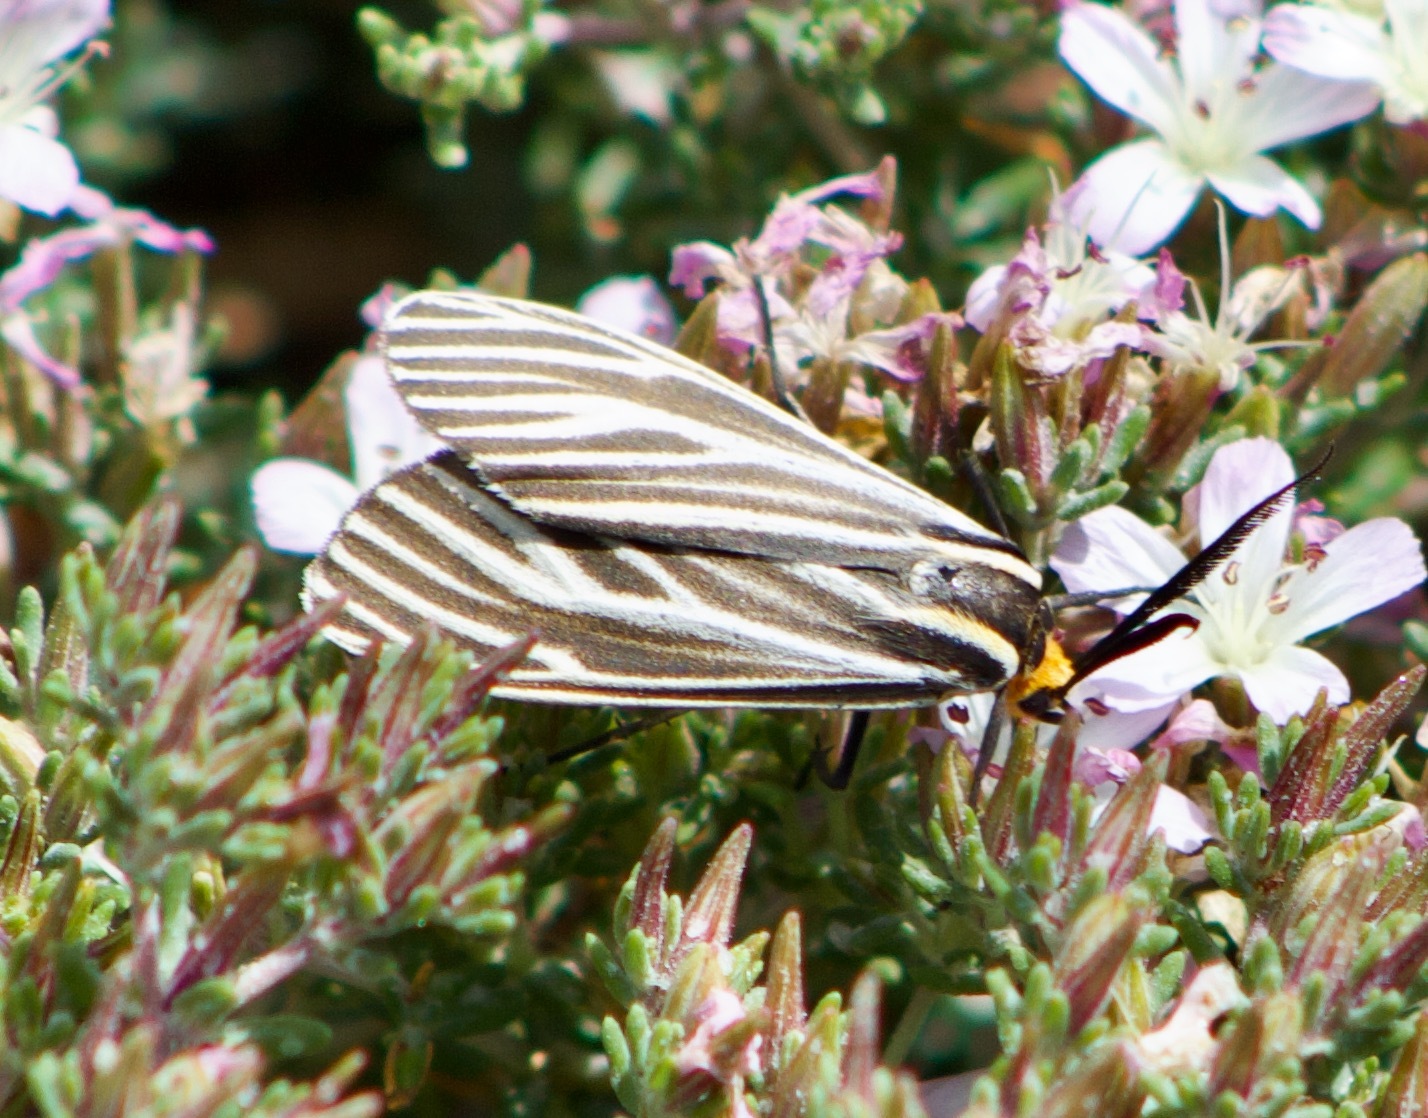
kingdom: Animalia
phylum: Arthropoda
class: Insecta
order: Lepidoptera
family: Erebidae
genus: Ctenucha
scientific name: Ctenucha vittigerum
